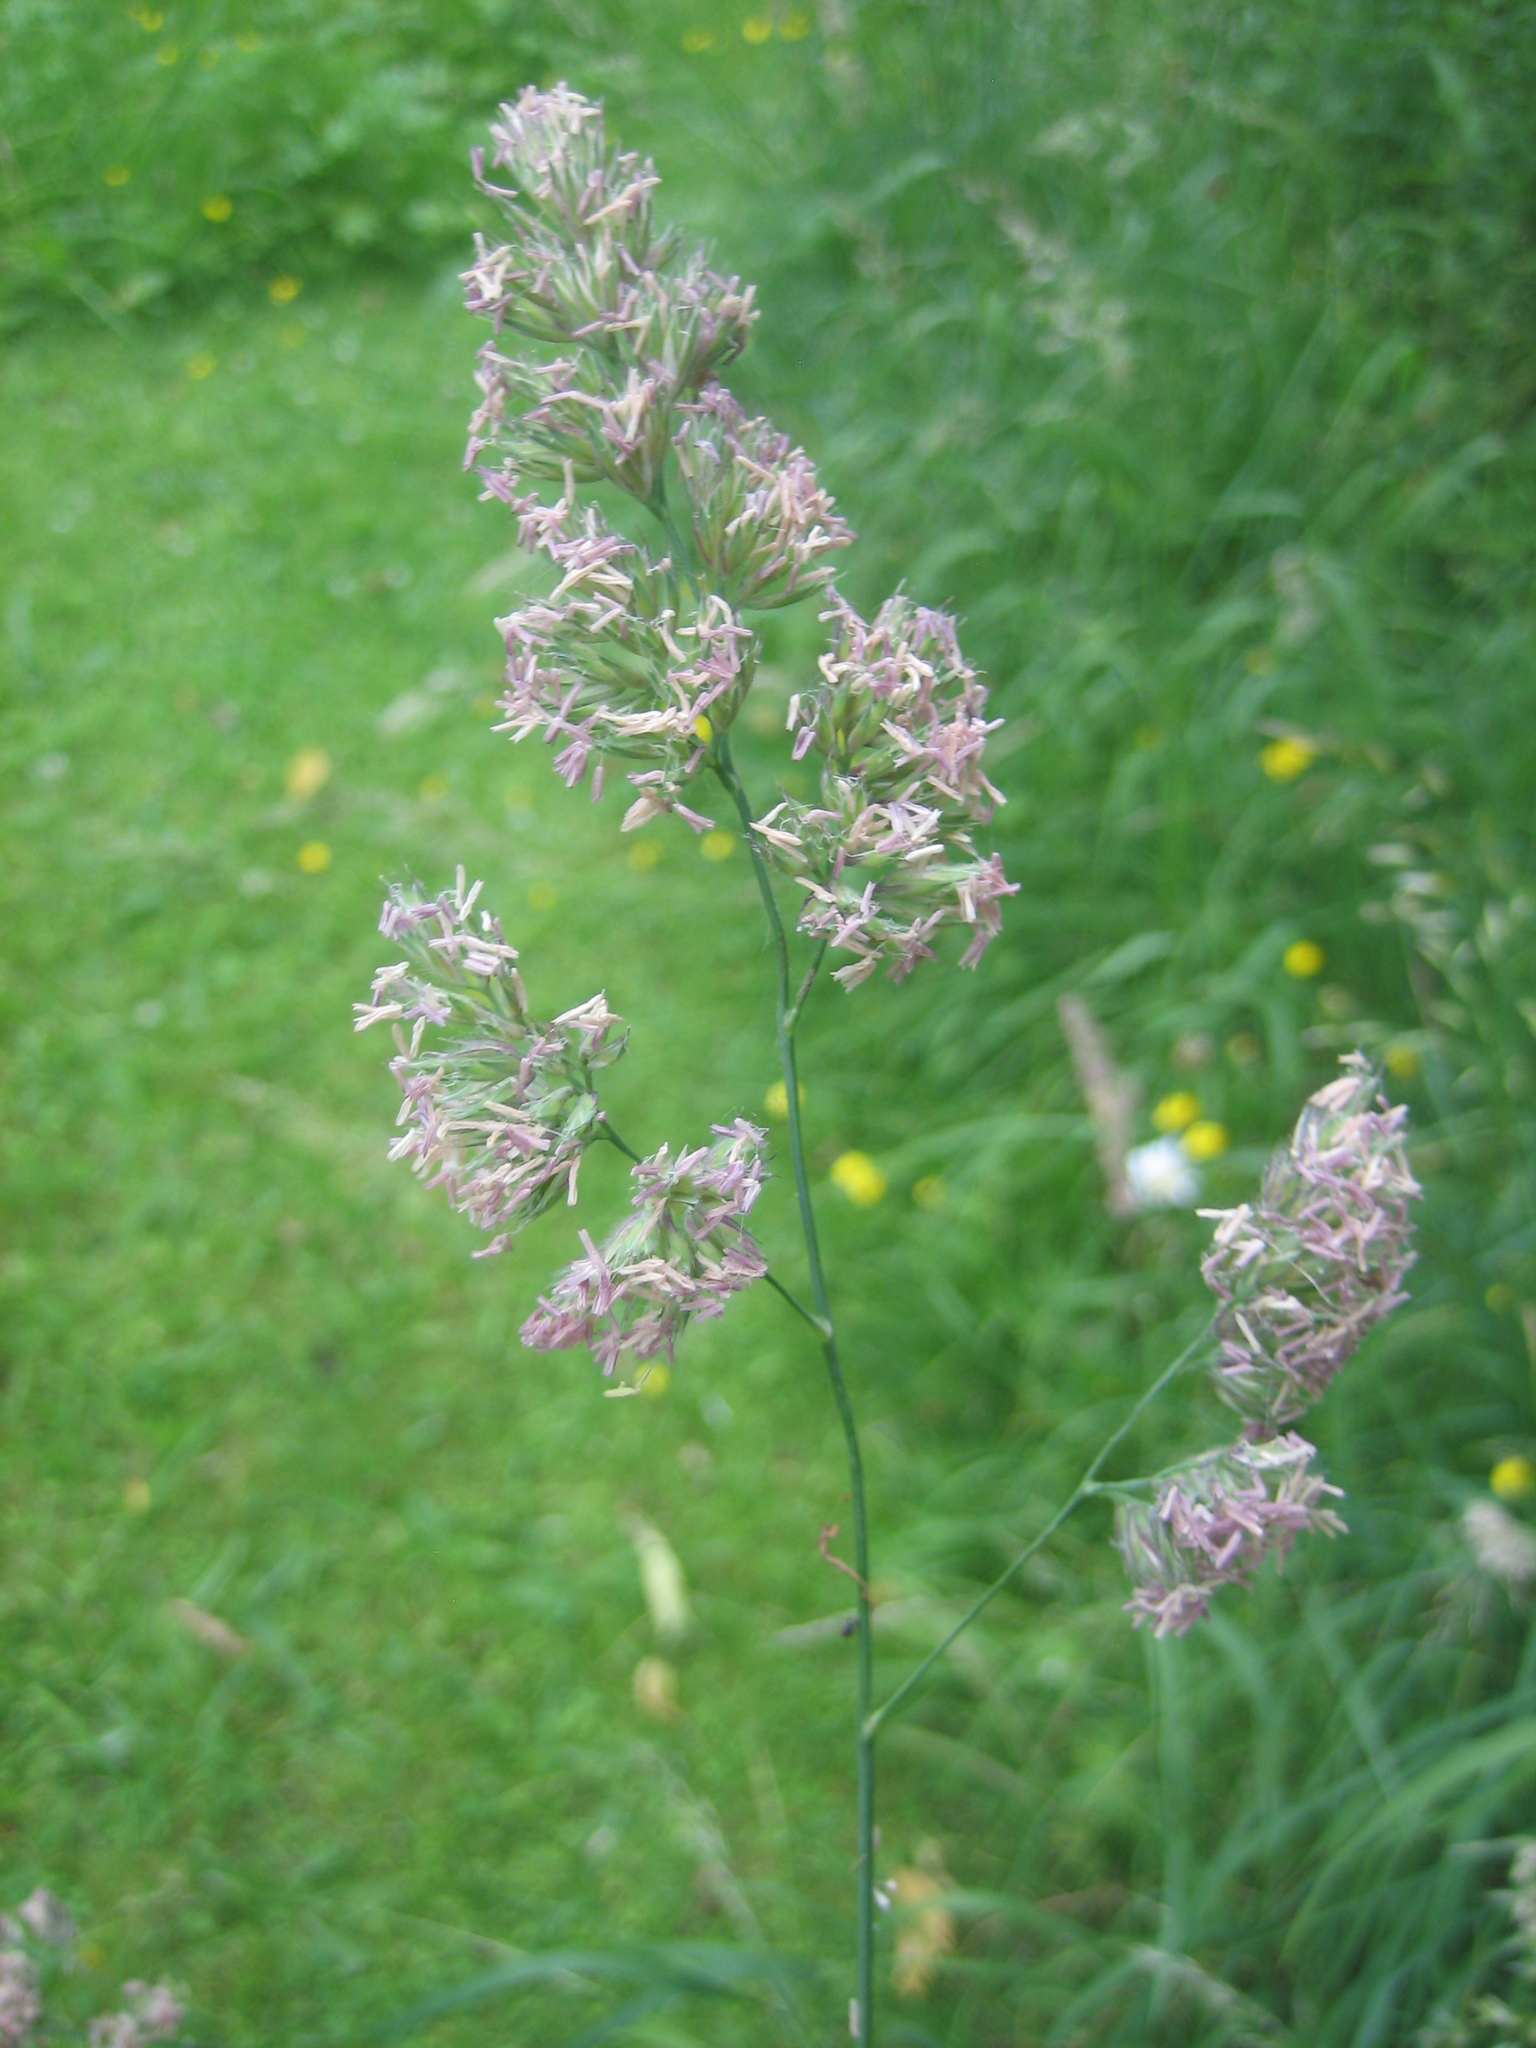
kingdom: Plantae
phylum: Tracheophyta
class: Liliopsida
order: Poales
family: Poaceae
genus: Dactylis
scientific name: Dactylis glomerata
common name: Orchardgrass
